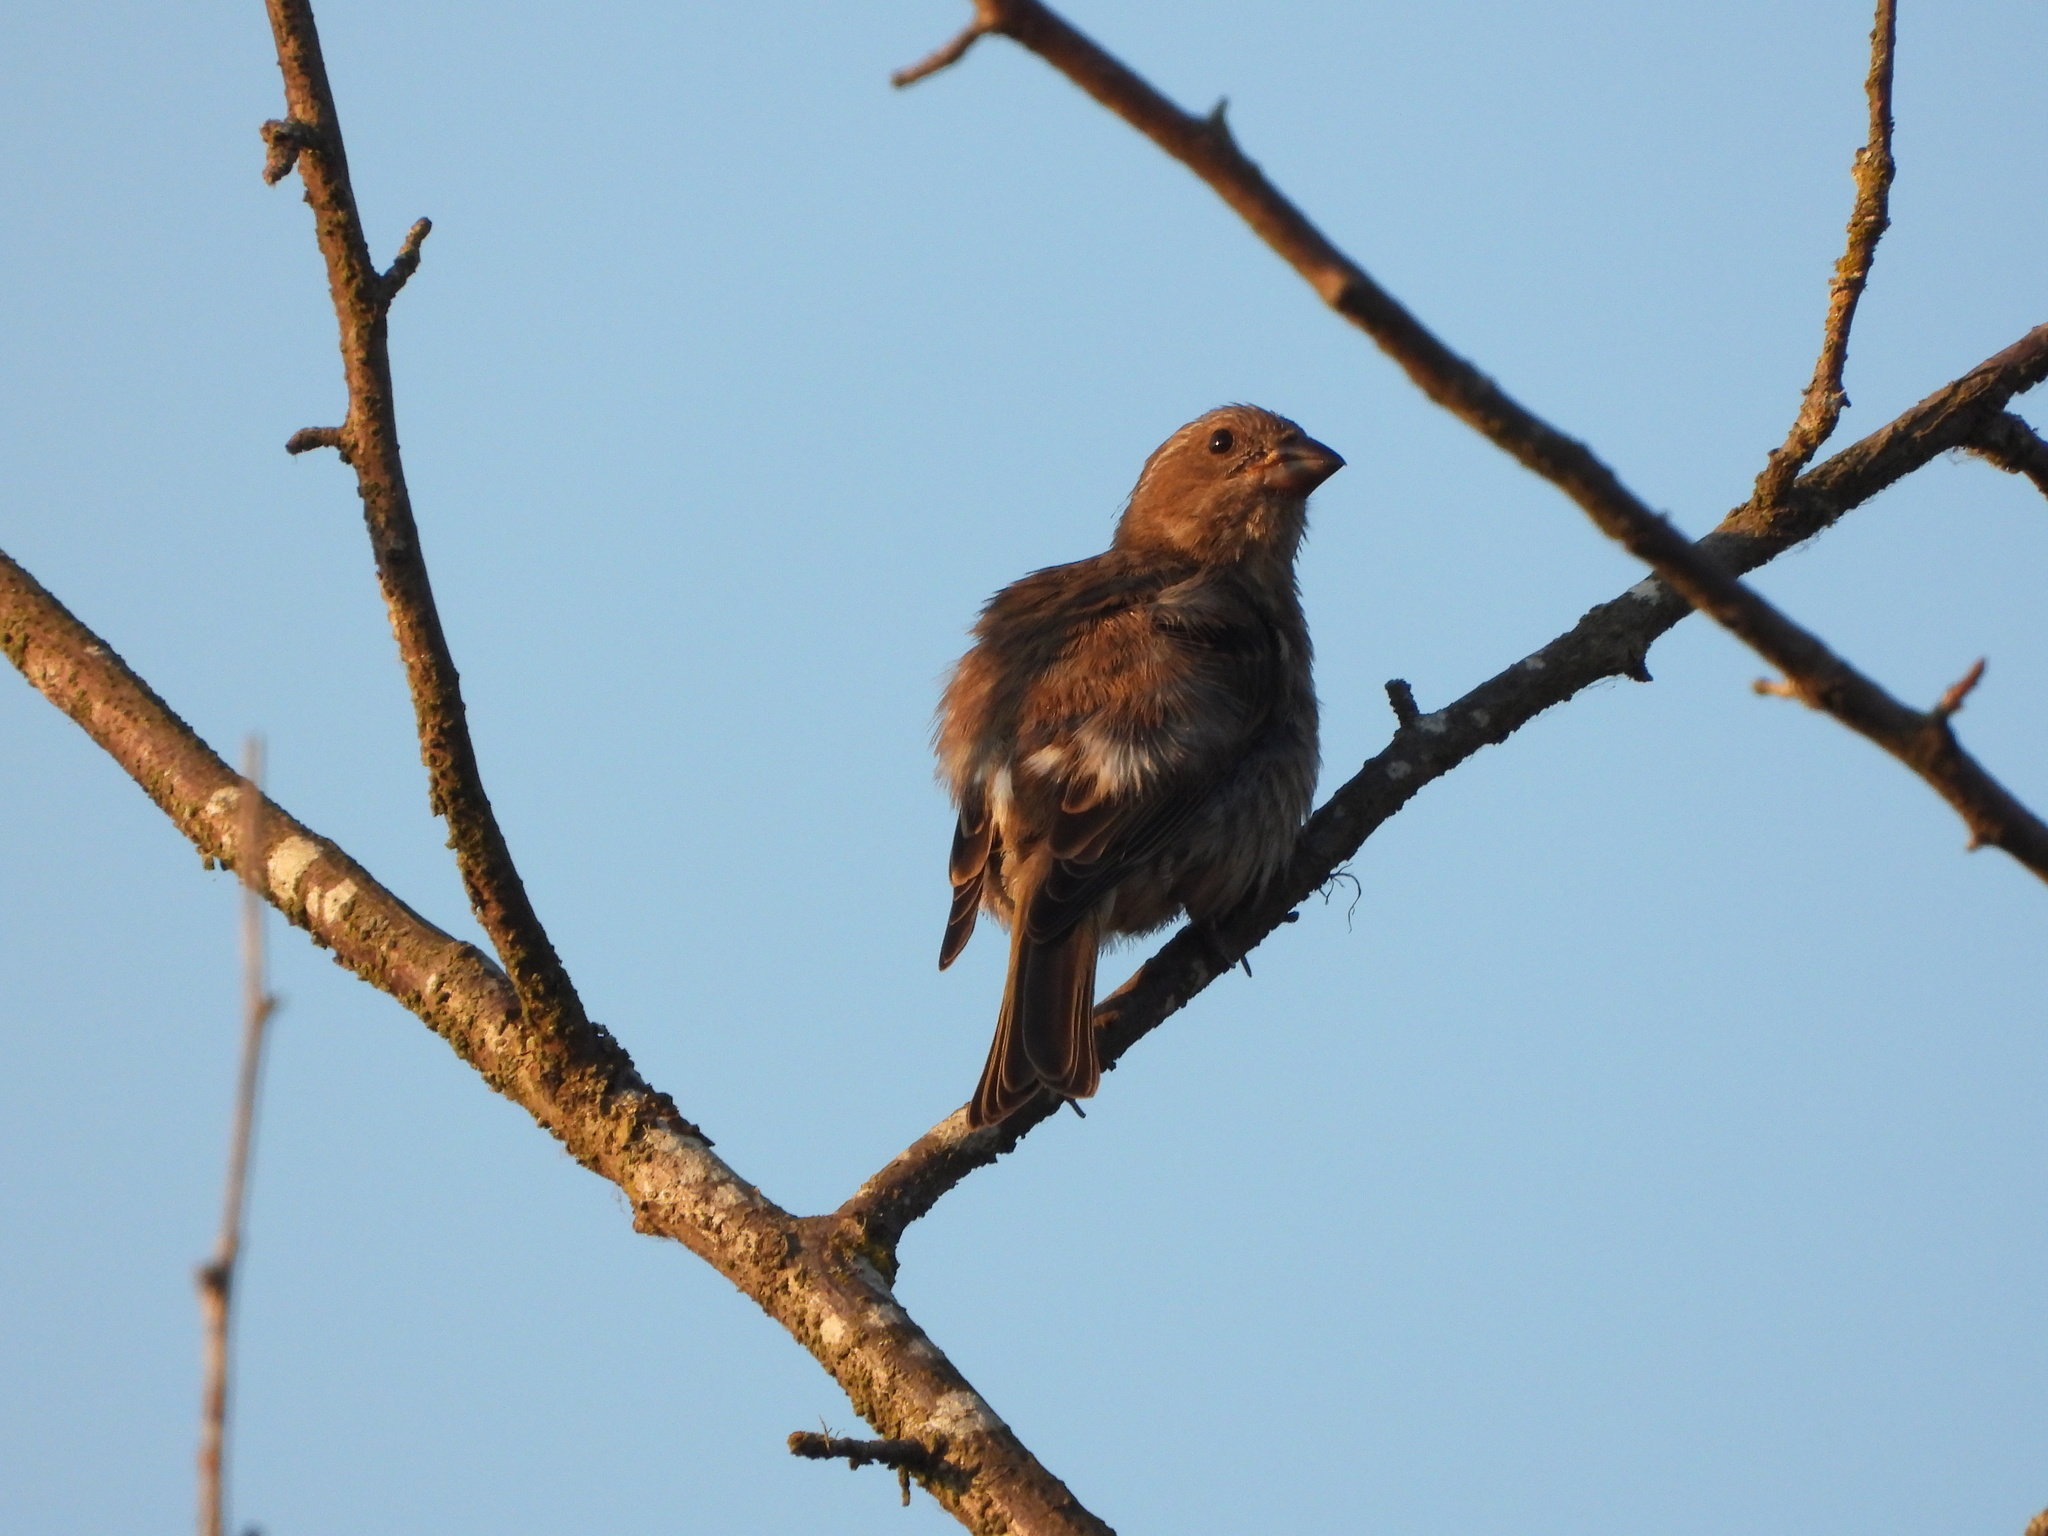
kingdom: Animalia
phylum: Chordata
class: Aves
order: Passeriformes
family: Fringillidae
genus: Haemorhous
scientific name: Haemorhous purpureus
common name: Purple finch
